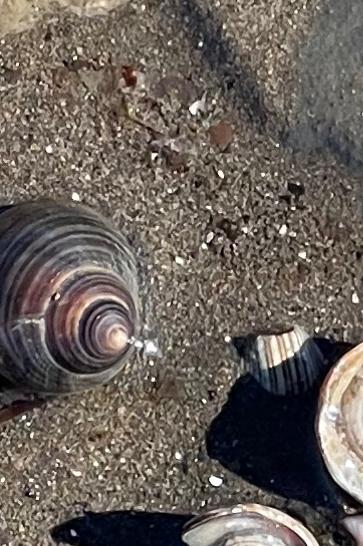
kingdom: Animalia
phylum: Mollusca
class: Gastropoda
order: Littorinimorpha
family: Littorinidae
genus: Littorina
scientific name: Littorina littorea
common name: Common periwinkle
